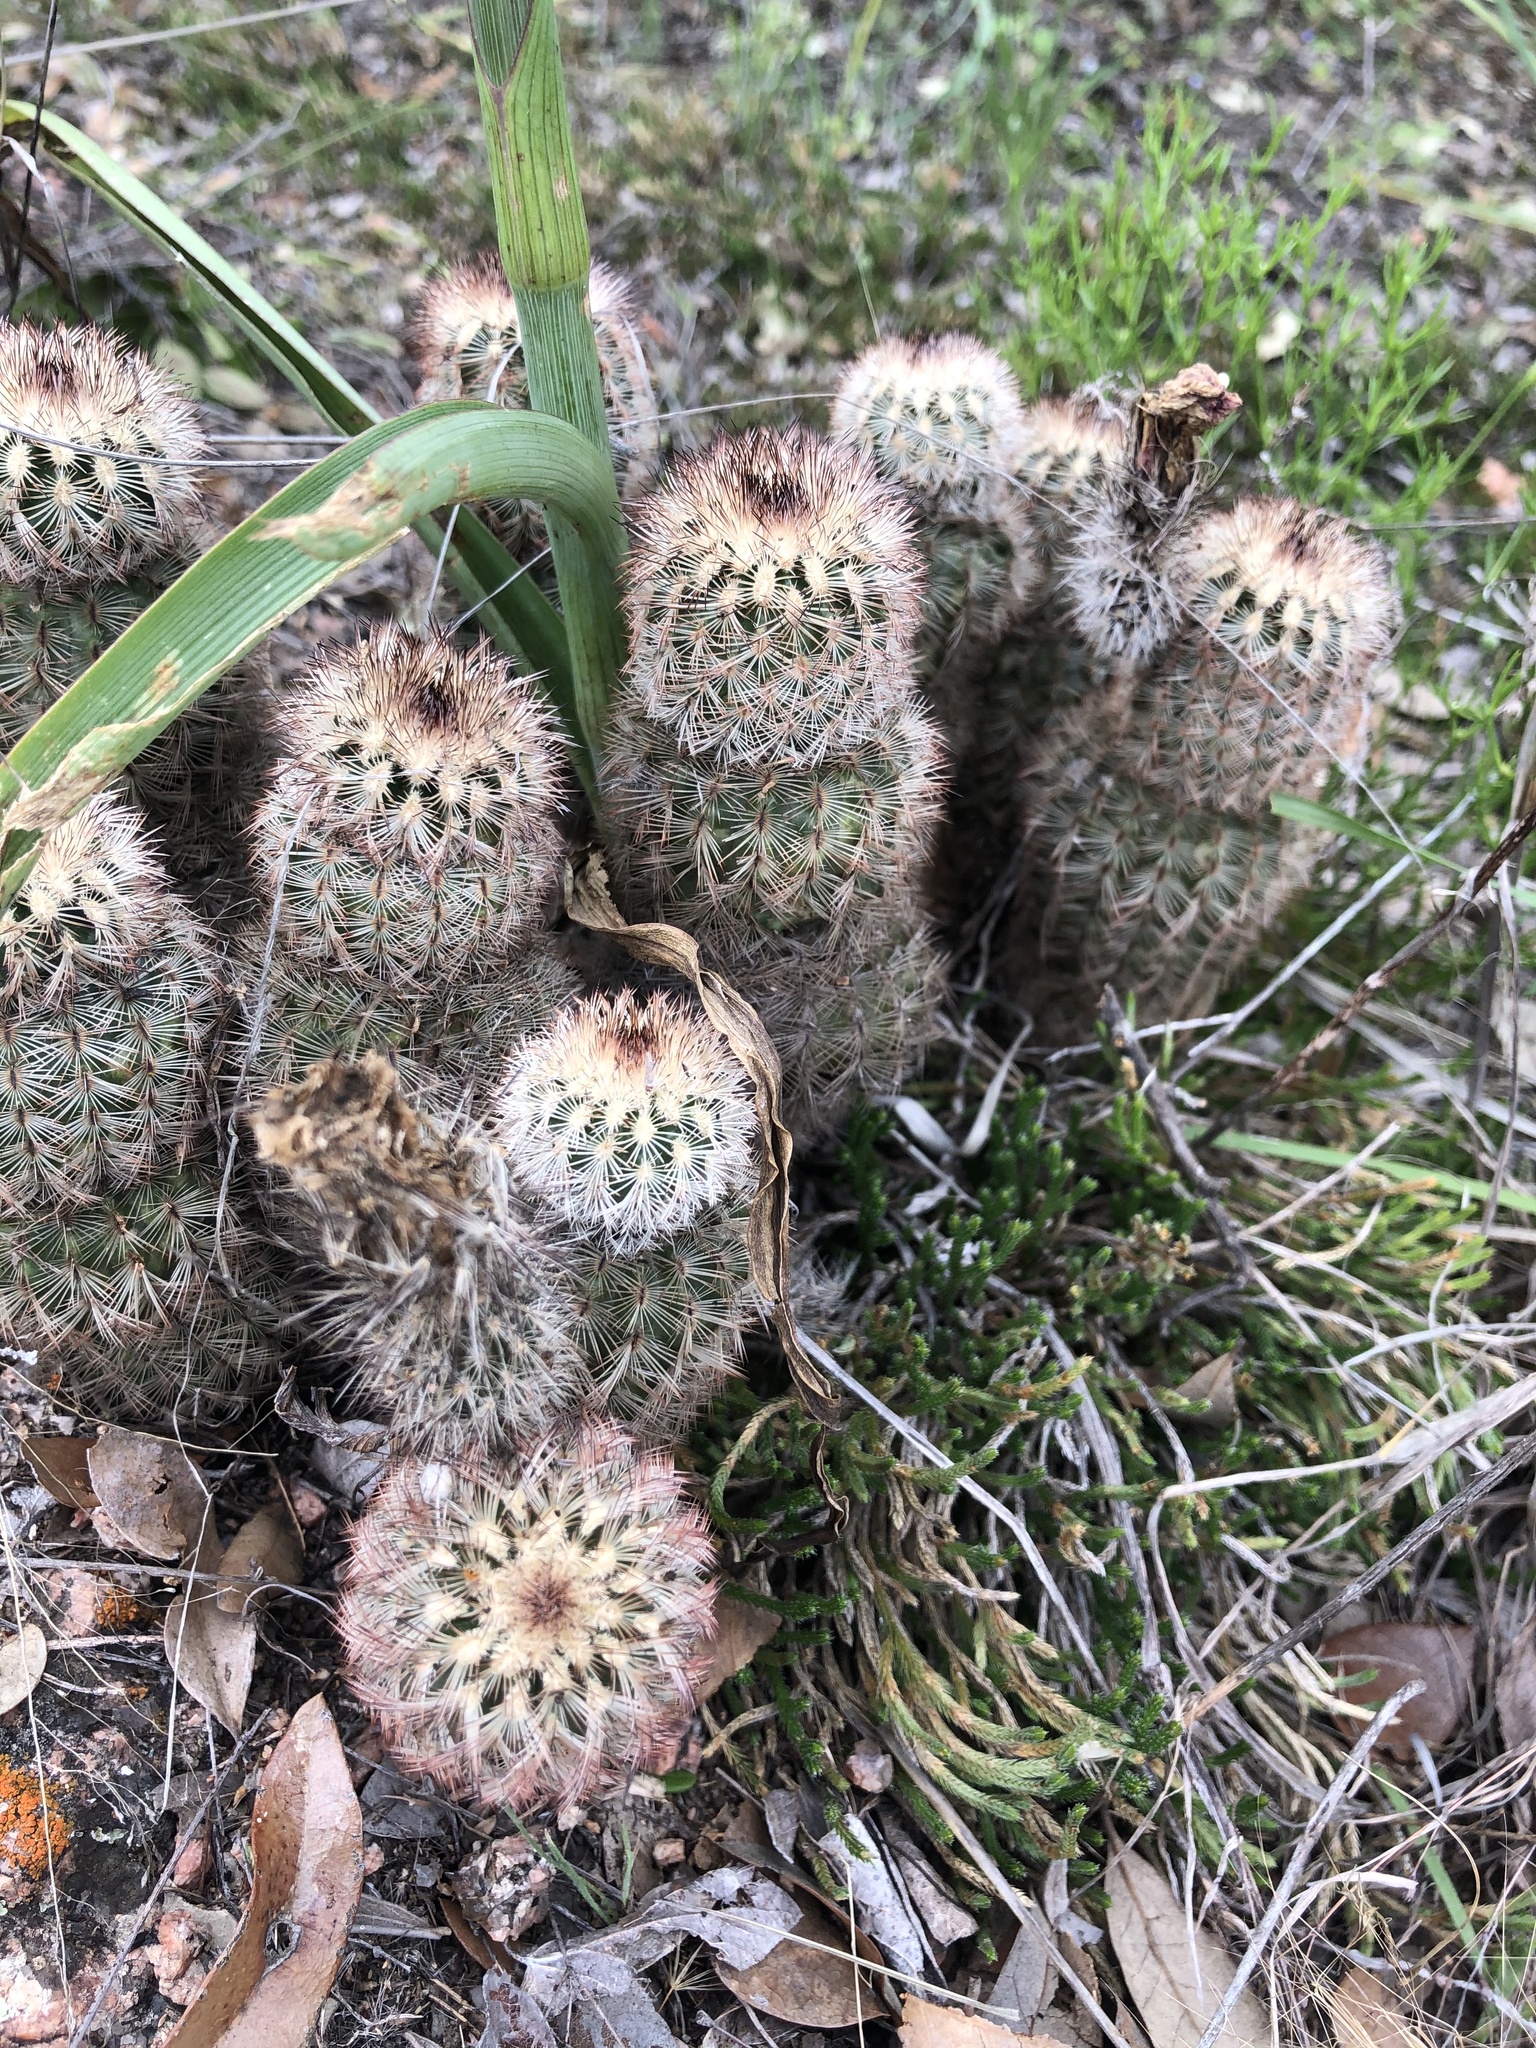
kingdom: Plantae
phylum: Tracheophyta
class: Magnoliopsida
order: Caryophyllales
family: Cactaceae
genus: Echinocereus
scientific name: Echinocereus reichenbachii
